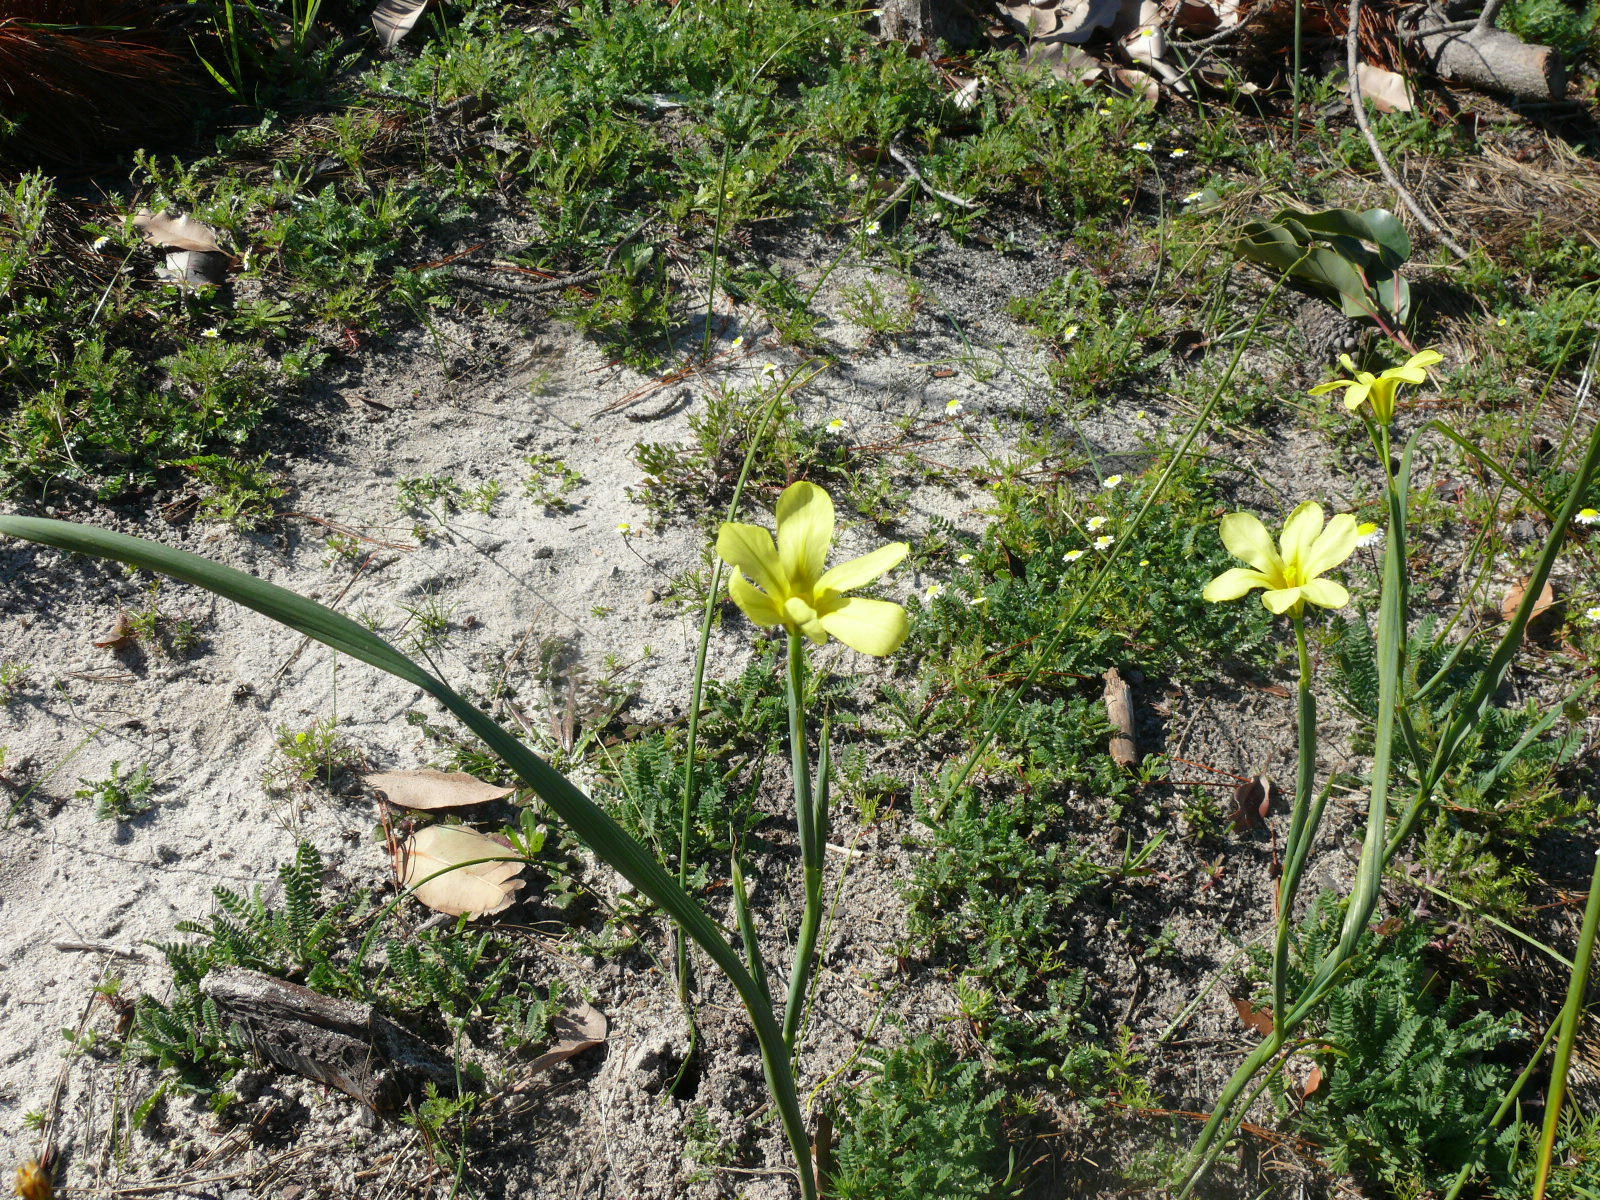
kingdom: Plantae
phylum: Tracheophyta
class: Liliopsida
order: Asparagales
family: Iridaceae
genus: Moraea
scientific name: Moraea collina
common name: Cape-tulip
